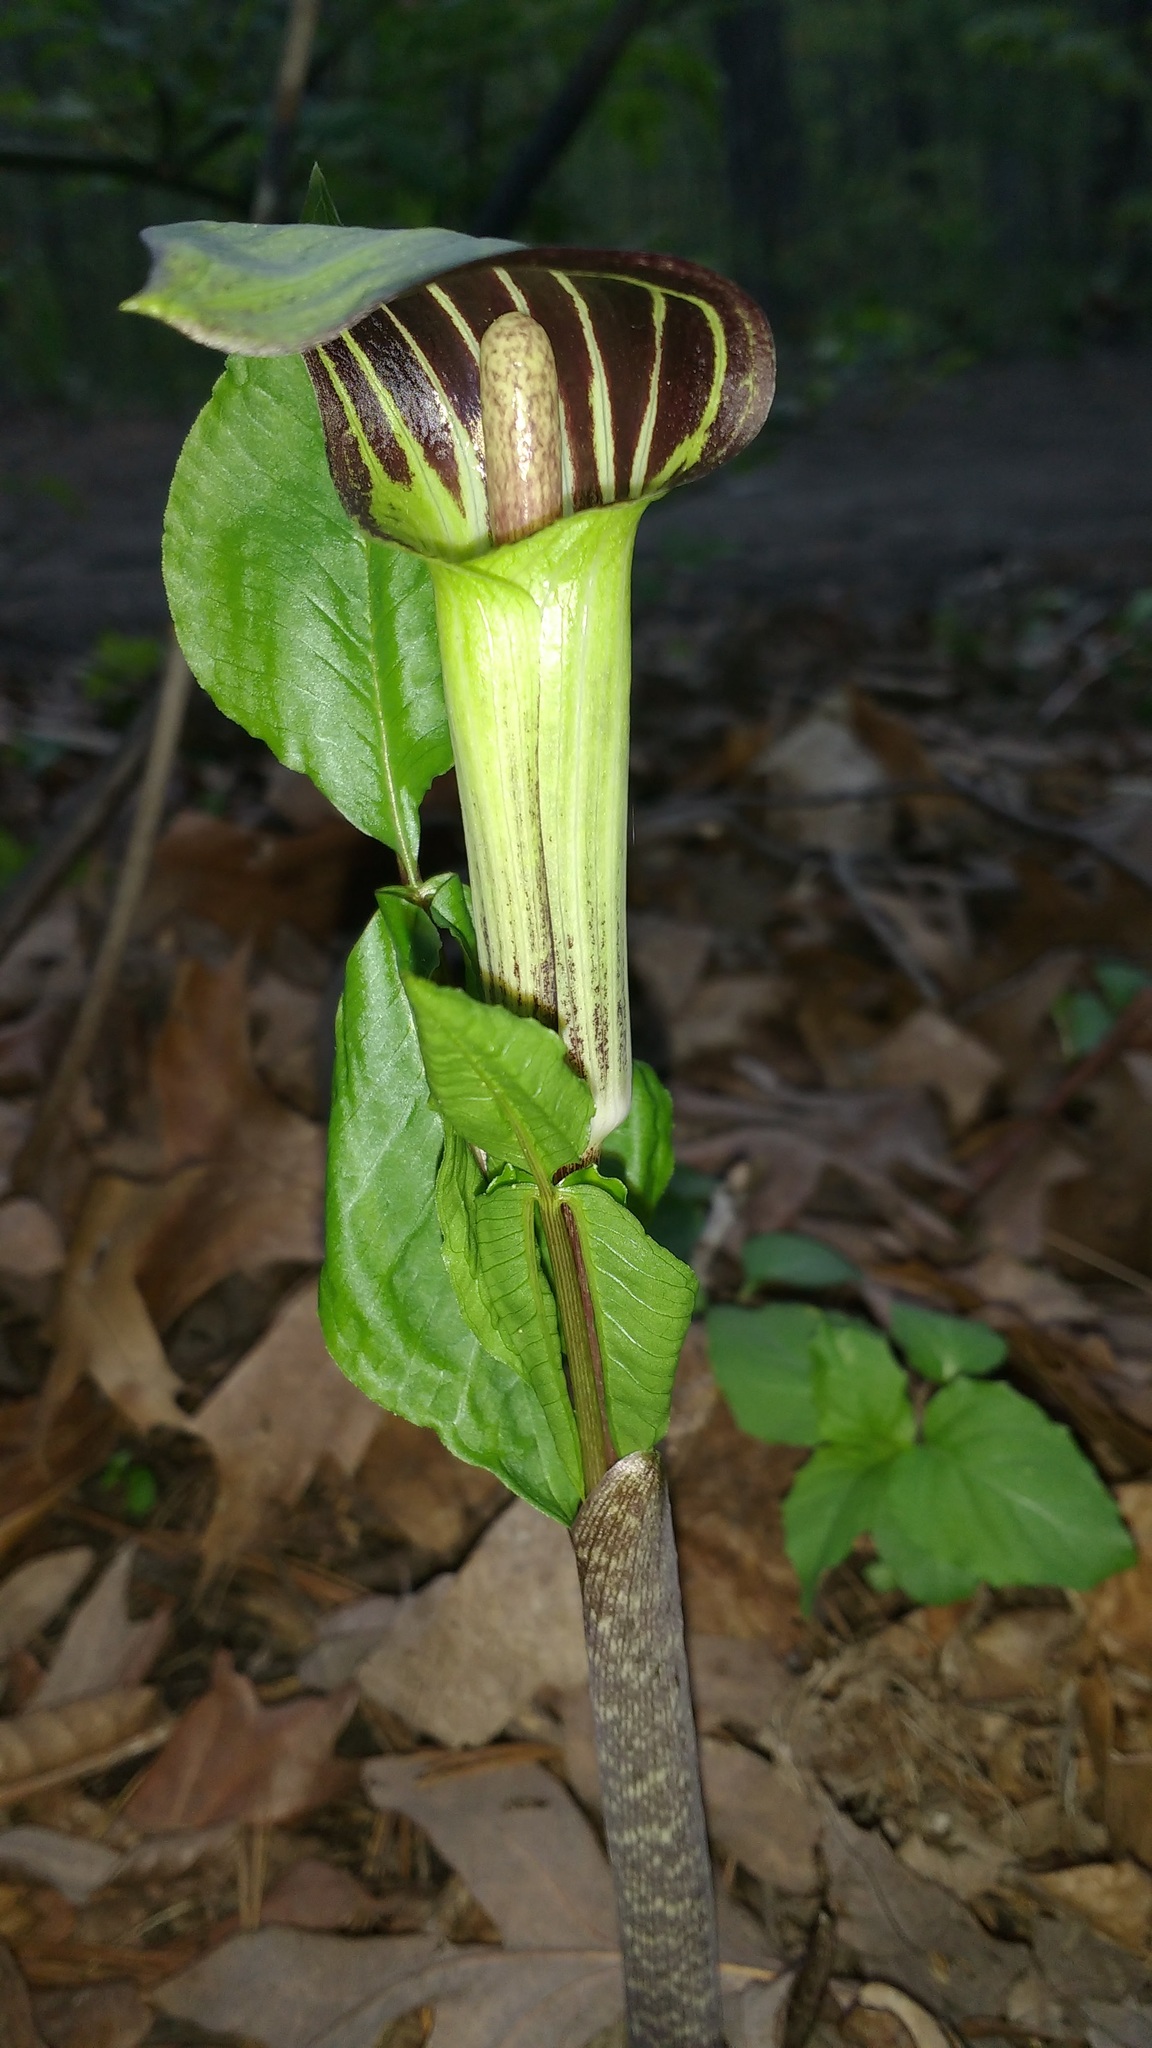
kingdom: Plantae
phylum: Tracheophyta
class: Liliopsida
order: Alismatales
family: Araceae
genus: Arisaema
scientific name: Arisaema triphyllum
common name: Jack-in-the-pulpit
